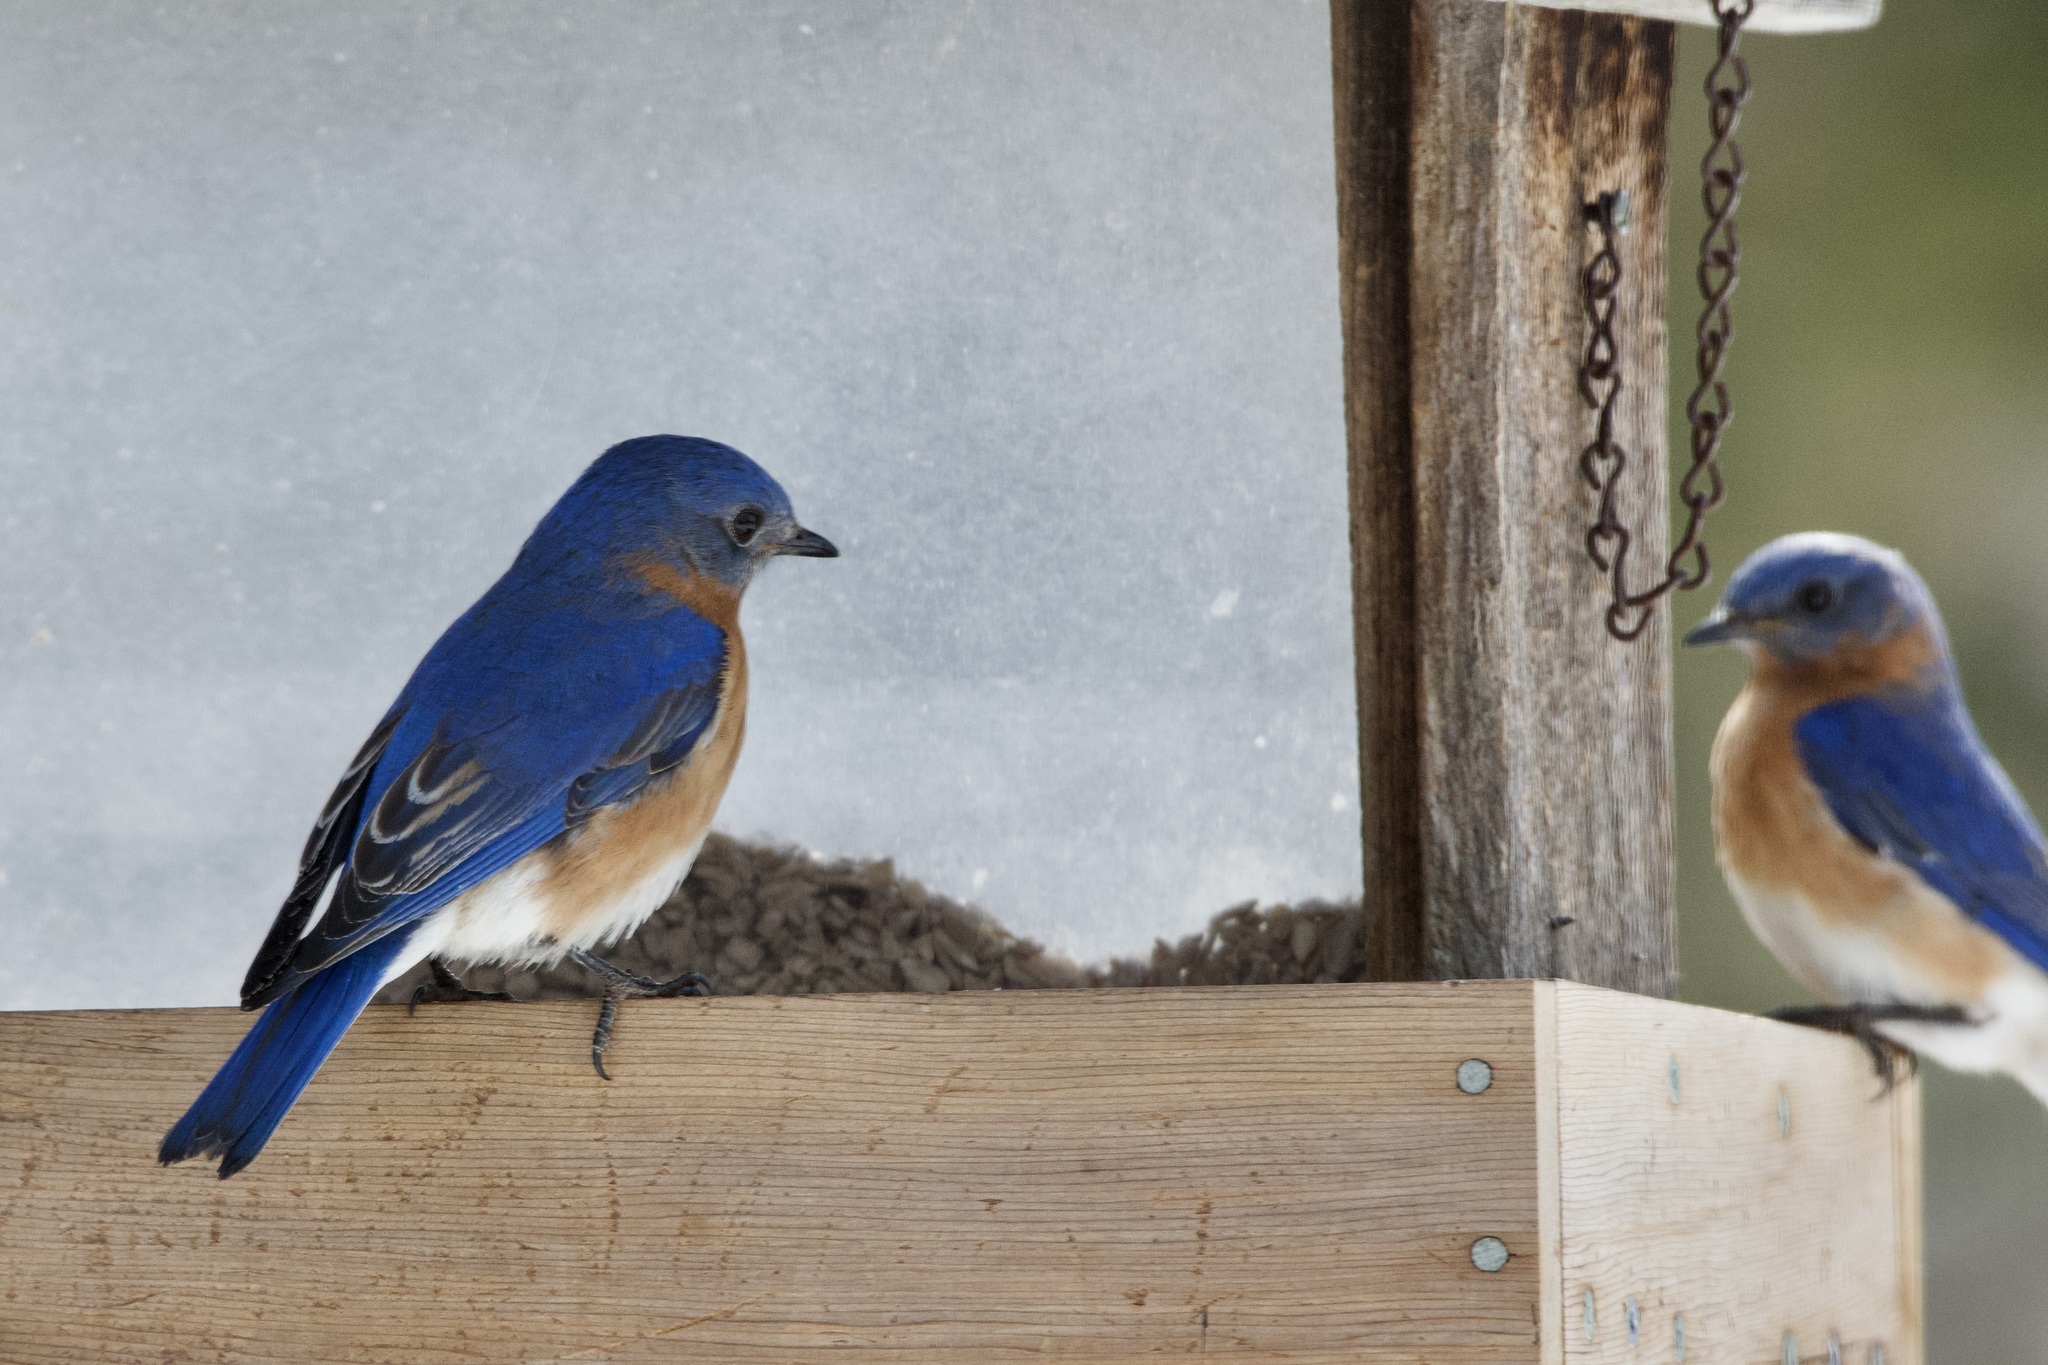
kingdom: Animalia
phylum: Chordata
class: Aves
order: Passeriformes
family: Turdidae
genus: Sialia
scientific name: Sialia sialis
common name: Eastern bluebird
